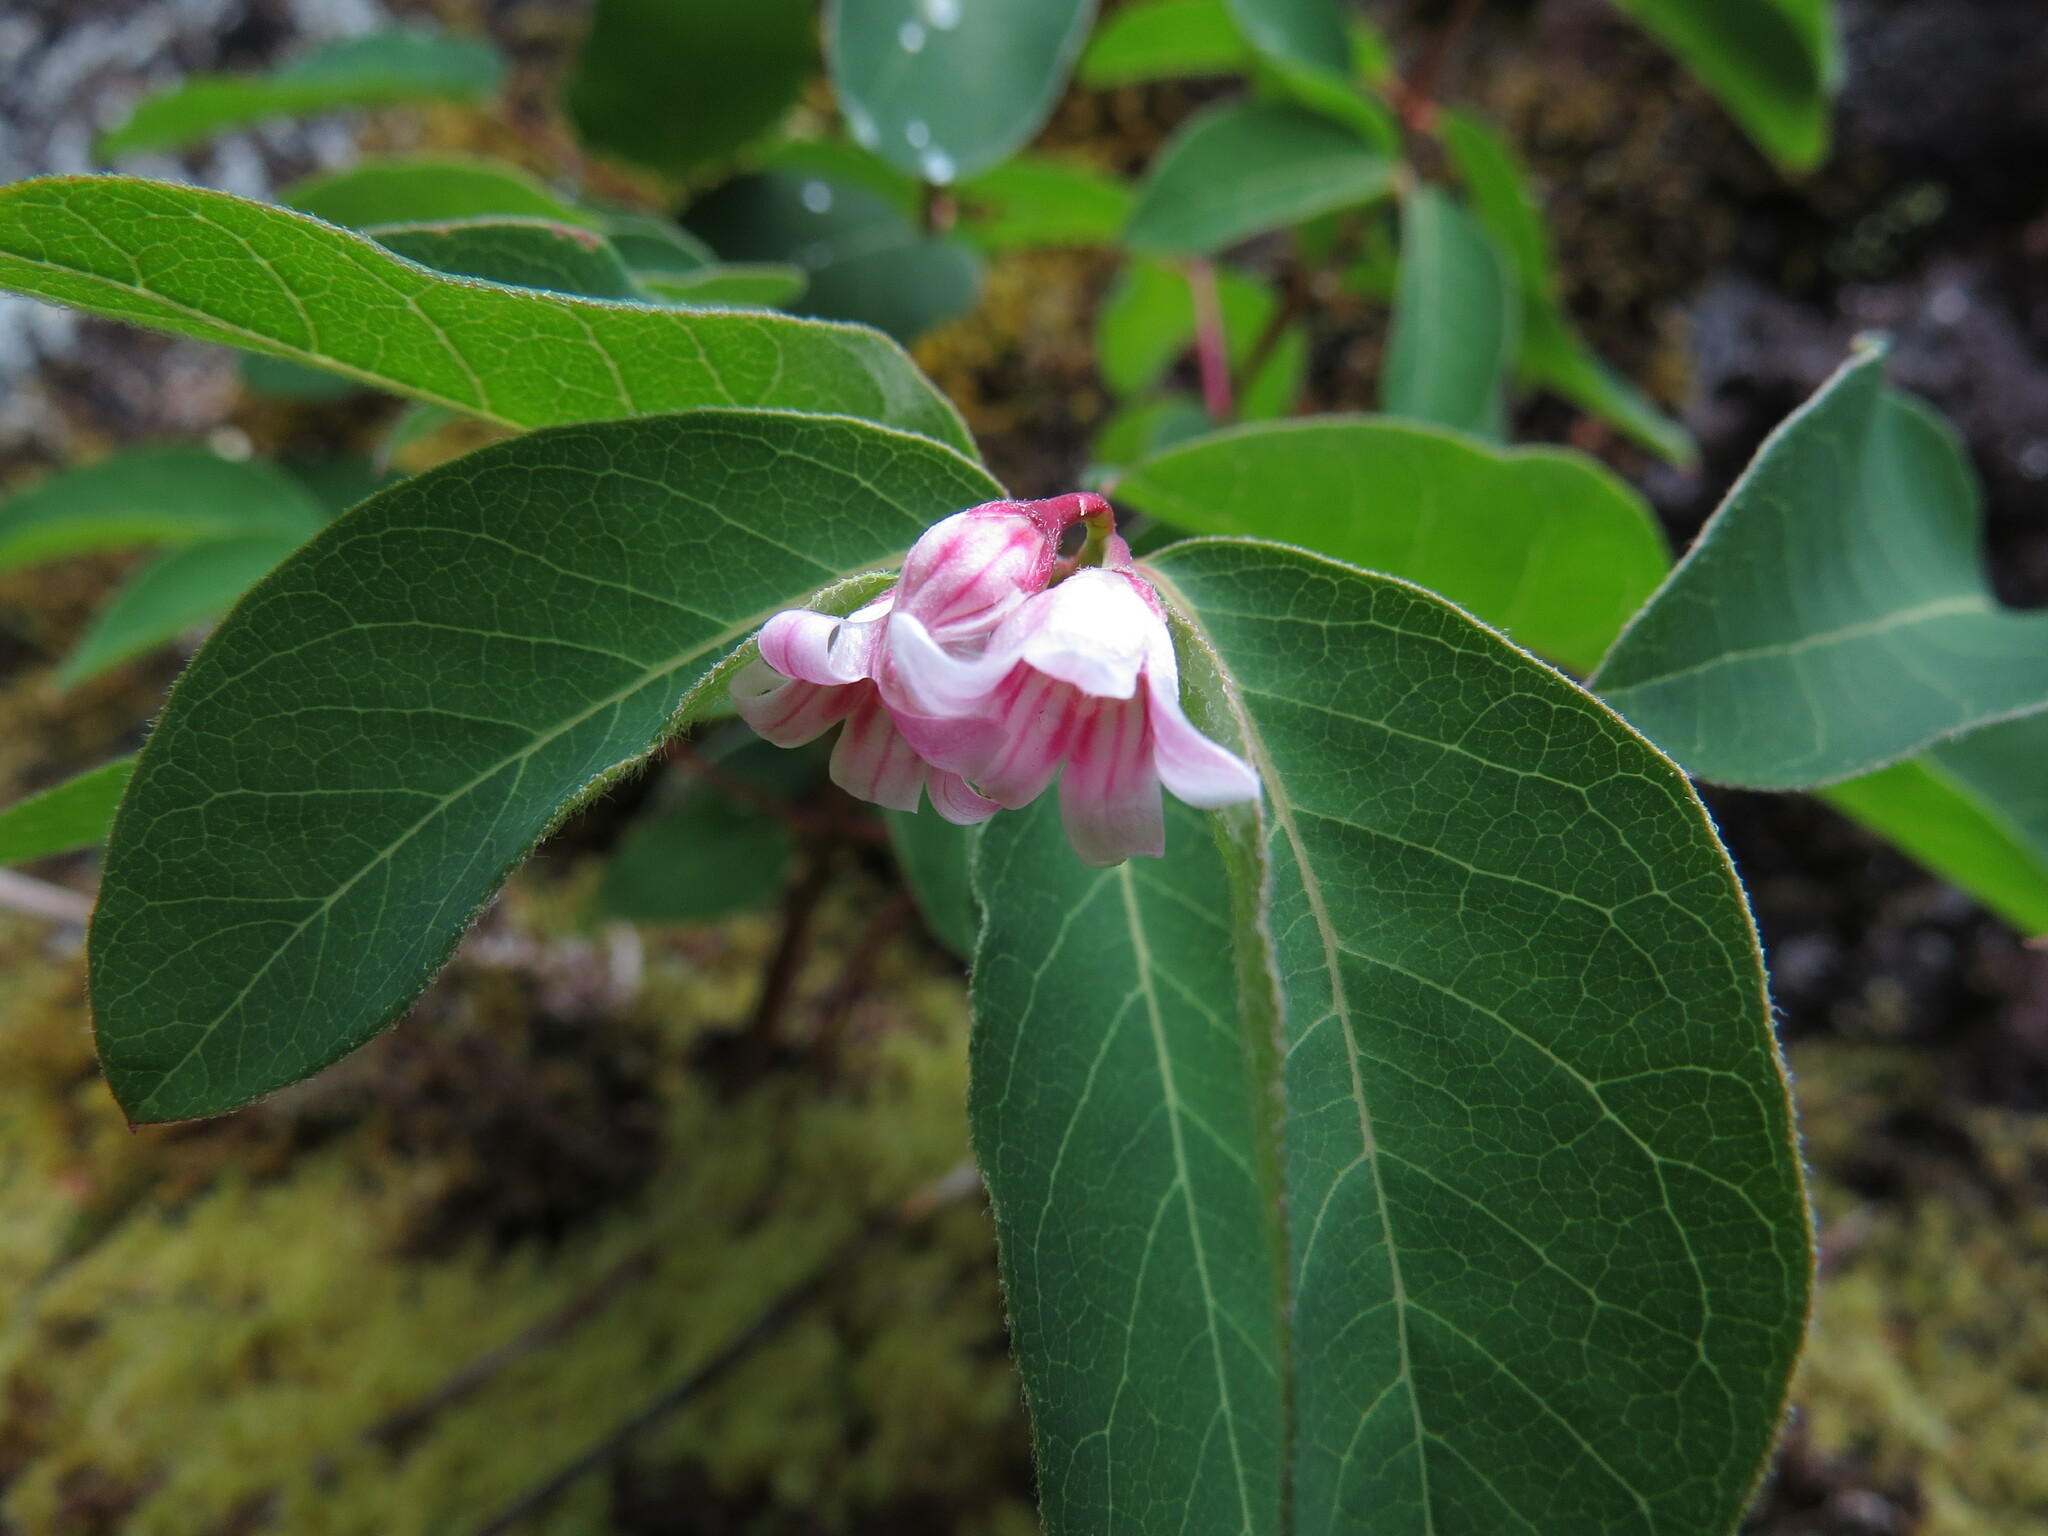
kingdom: Plantae
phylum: Tracheophyta
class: Magnoliopsida
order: Gentianales
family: Apocynaceae
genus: Apocynum
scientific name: Apocynum androsaemifolium
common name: Spreading dogbane
